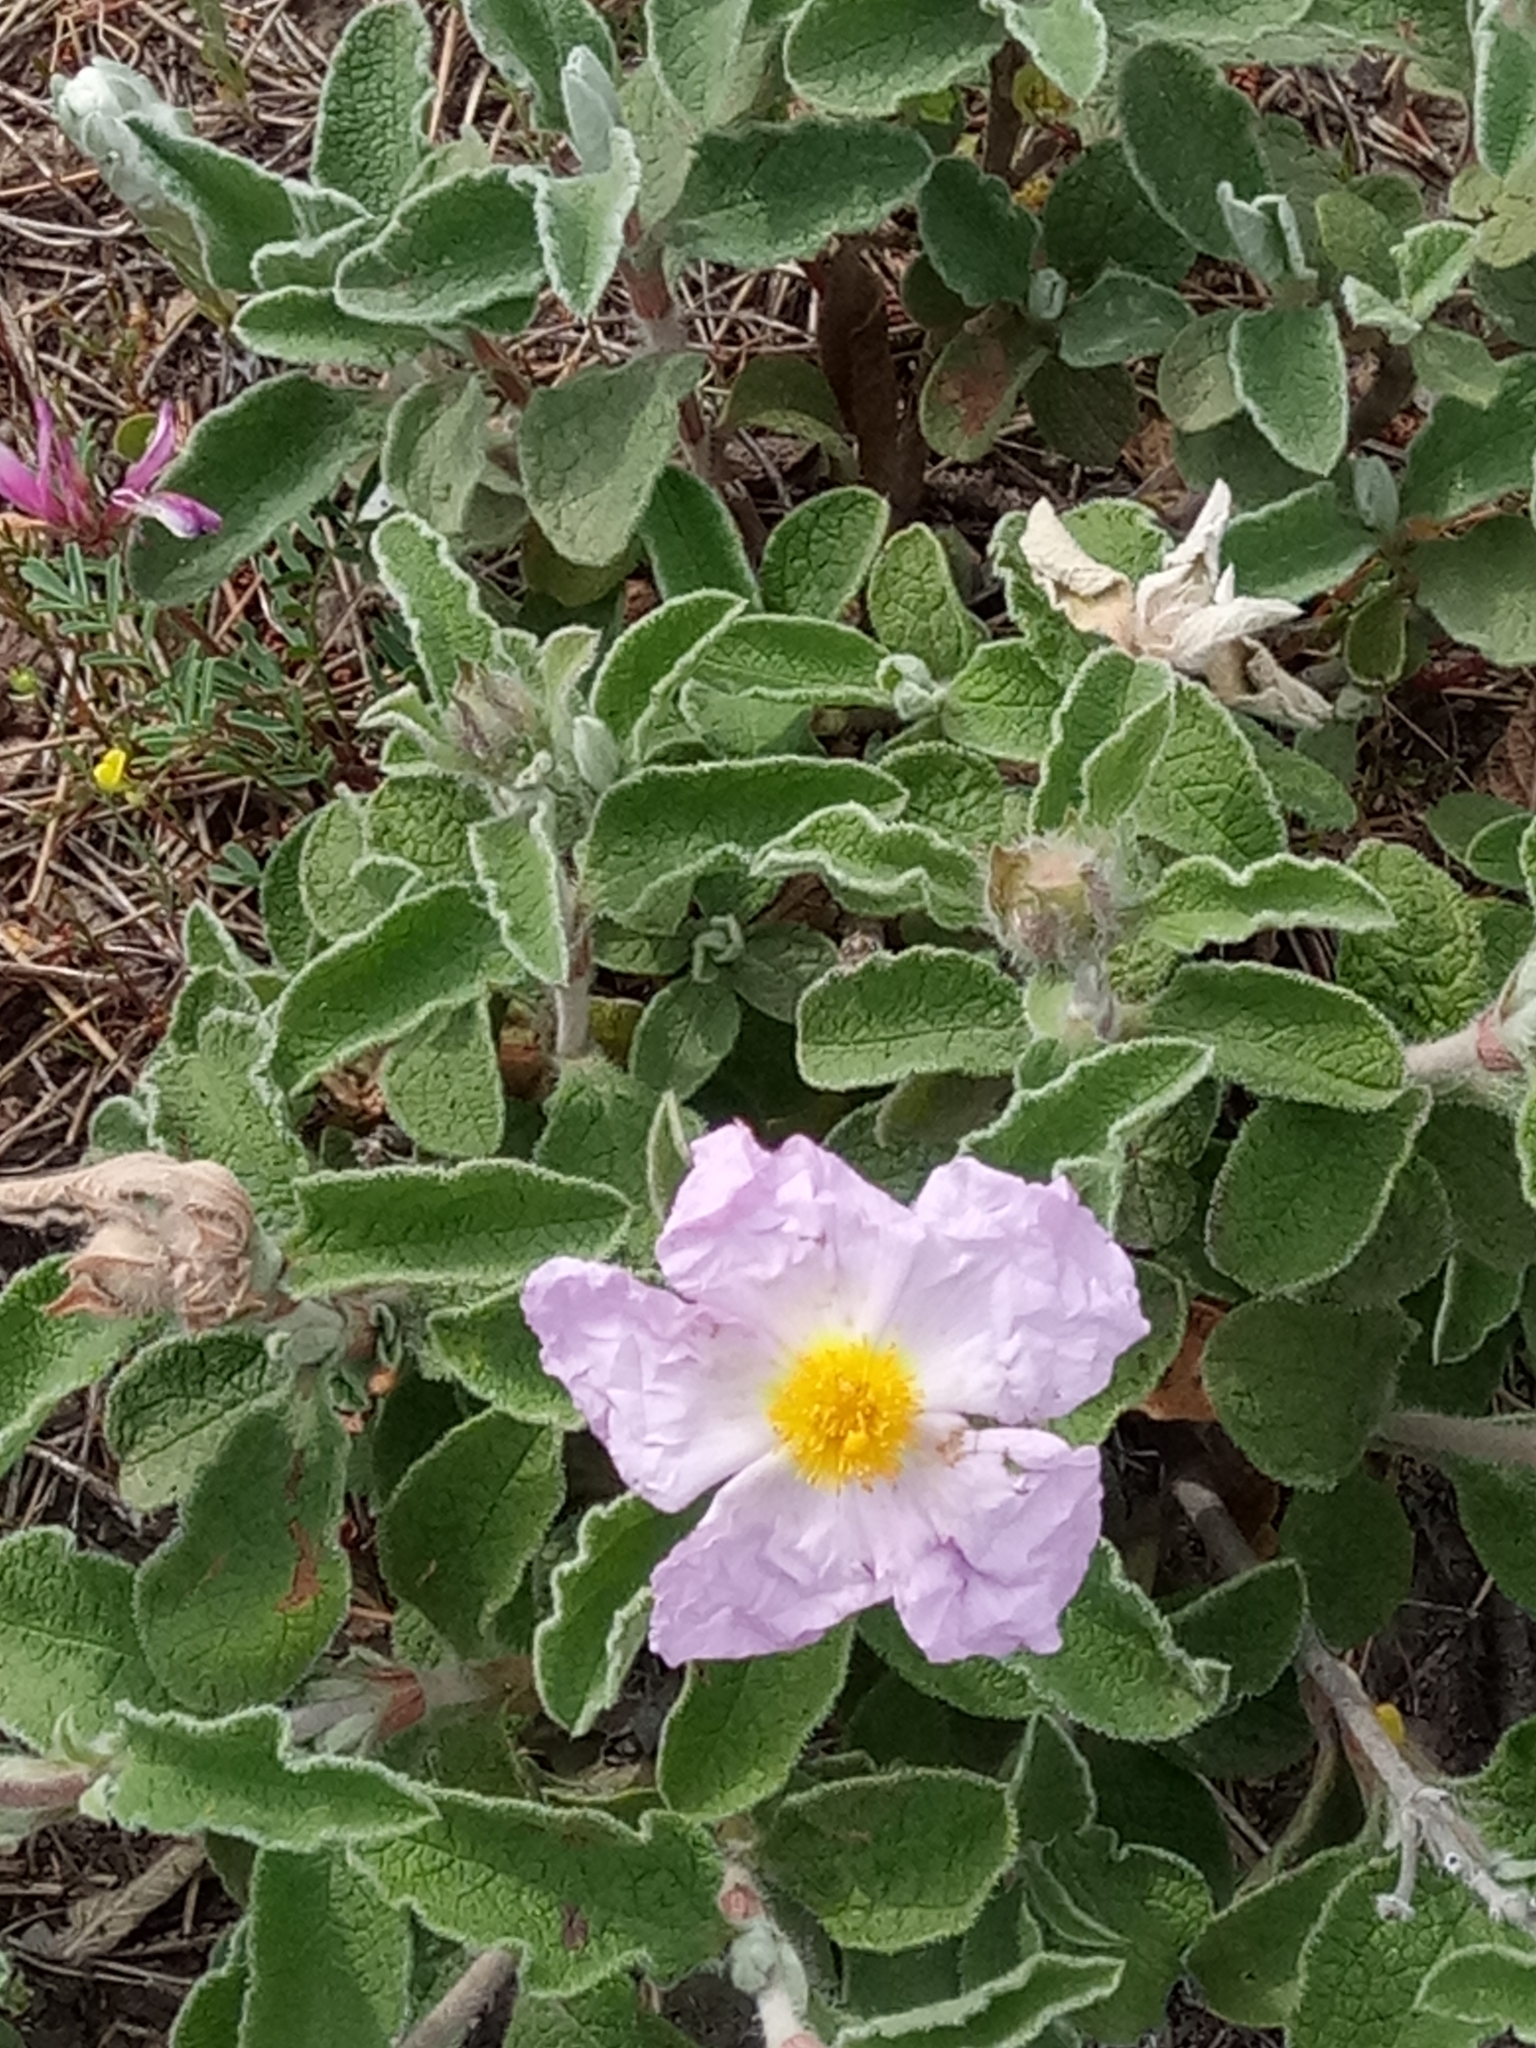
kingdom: Plantae
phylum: Tracheophyta
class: Magnoliopsida
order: Malvales
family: Cistaceae
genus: Cistus
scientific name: Cistus creticus
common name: Cretan rockrose
